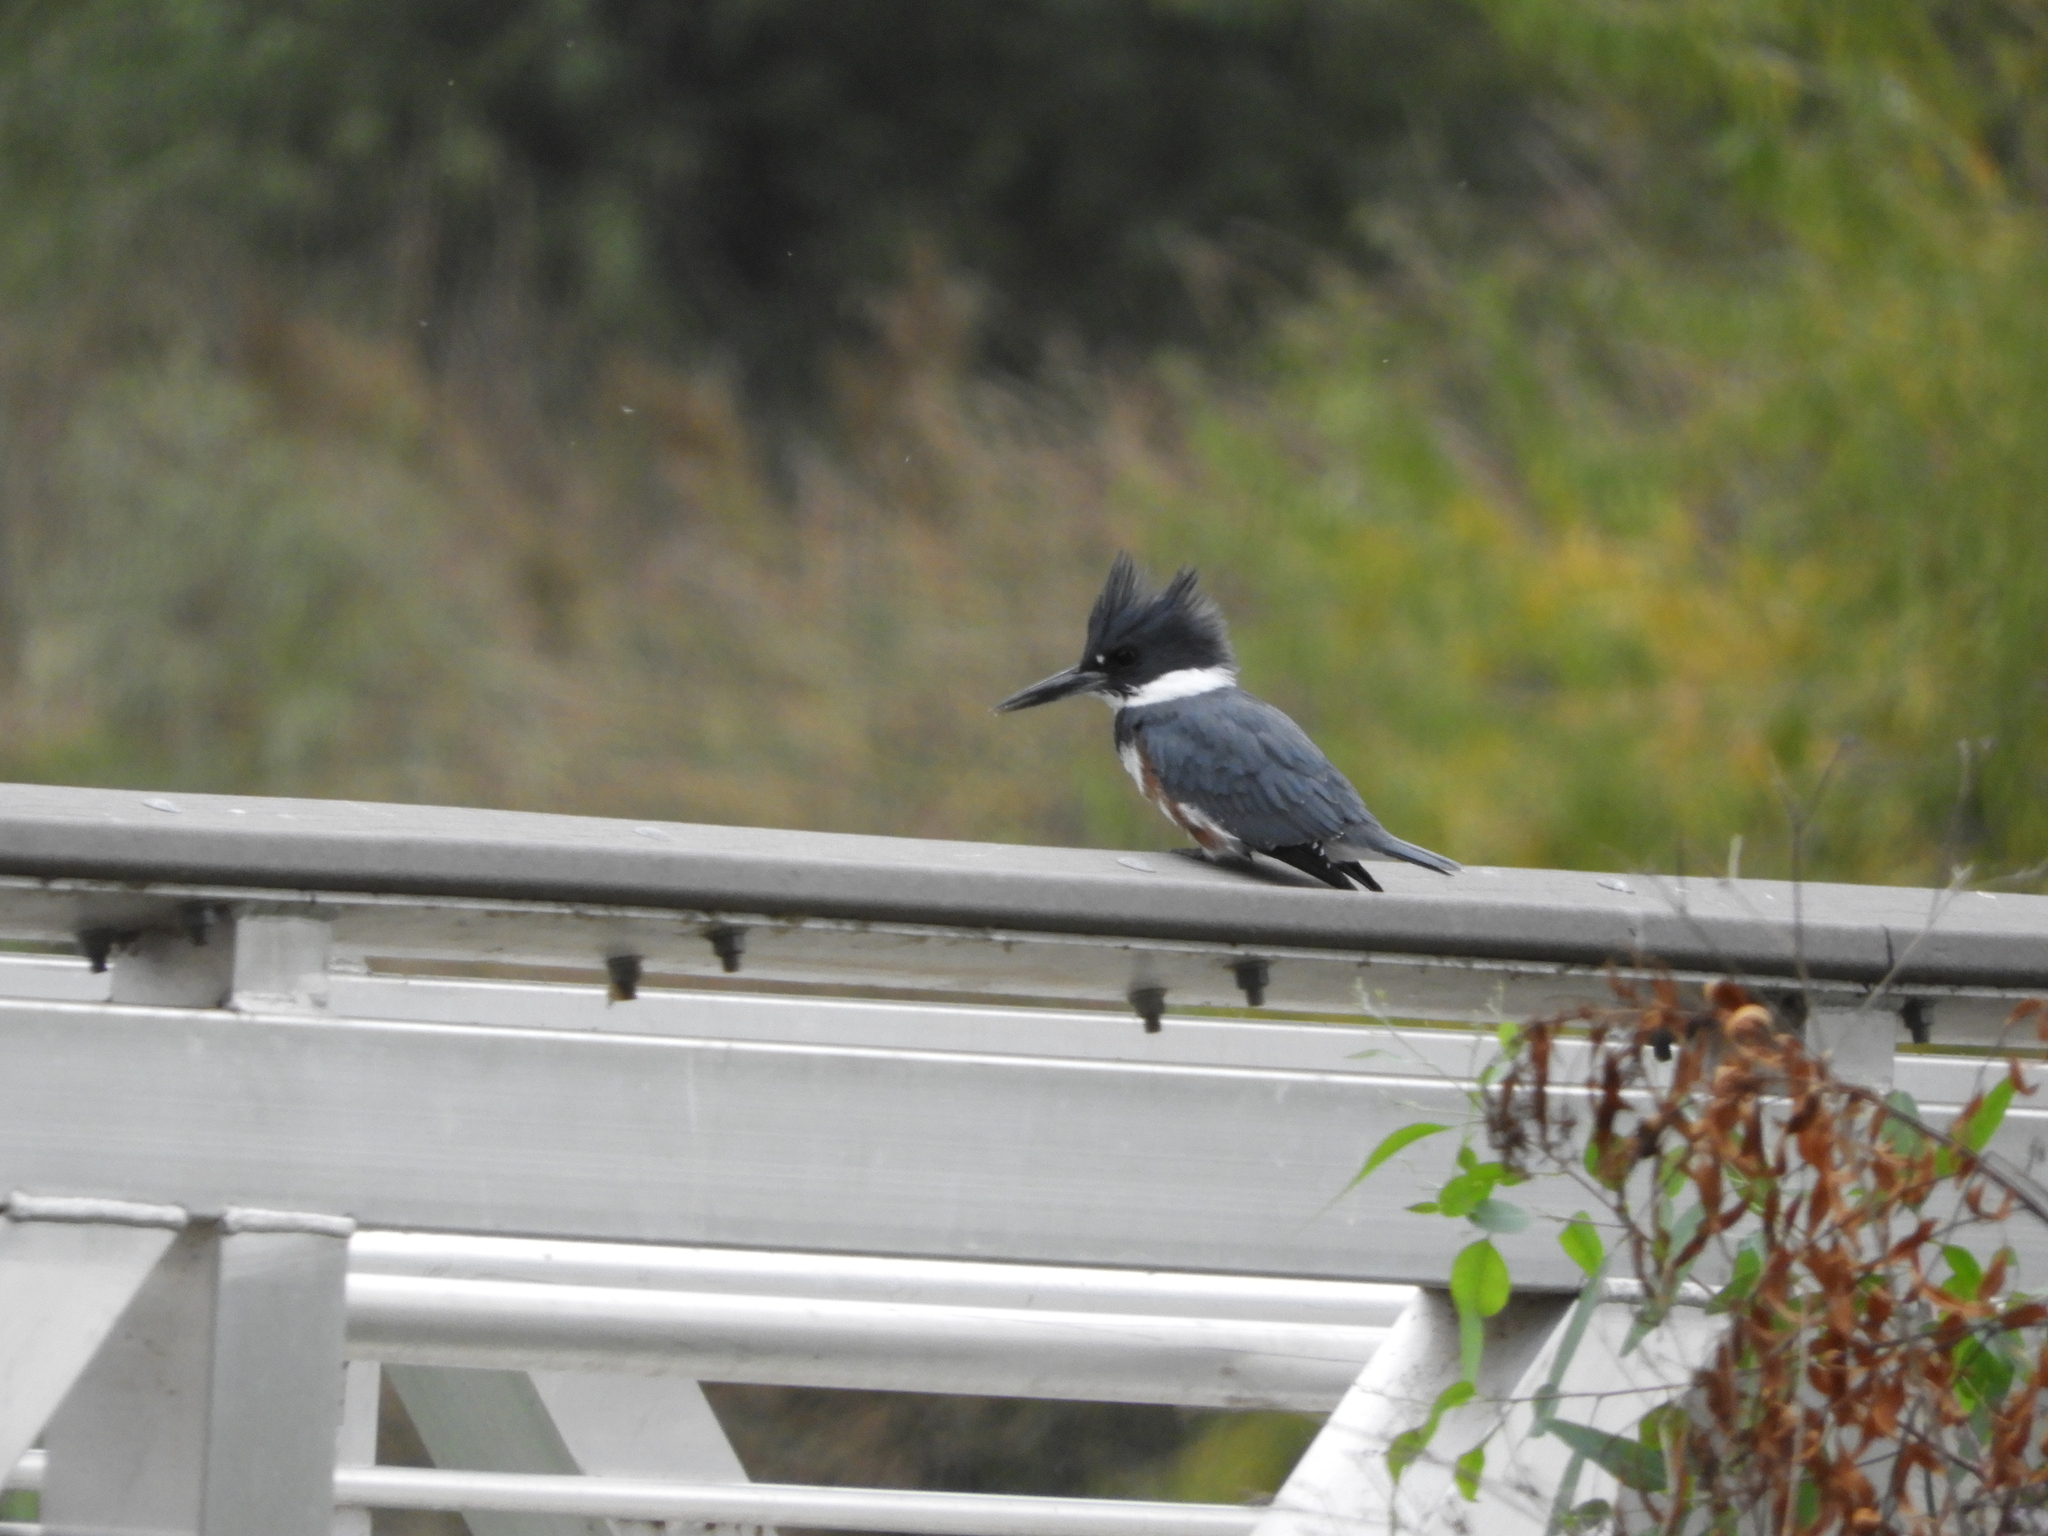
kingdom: Animalia
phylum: Chordata
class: Aves
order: Coraciiformes
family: Alcedinidae
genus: Megaceryle
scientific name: Megaceryle alcyon
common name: Belted kingfisher
